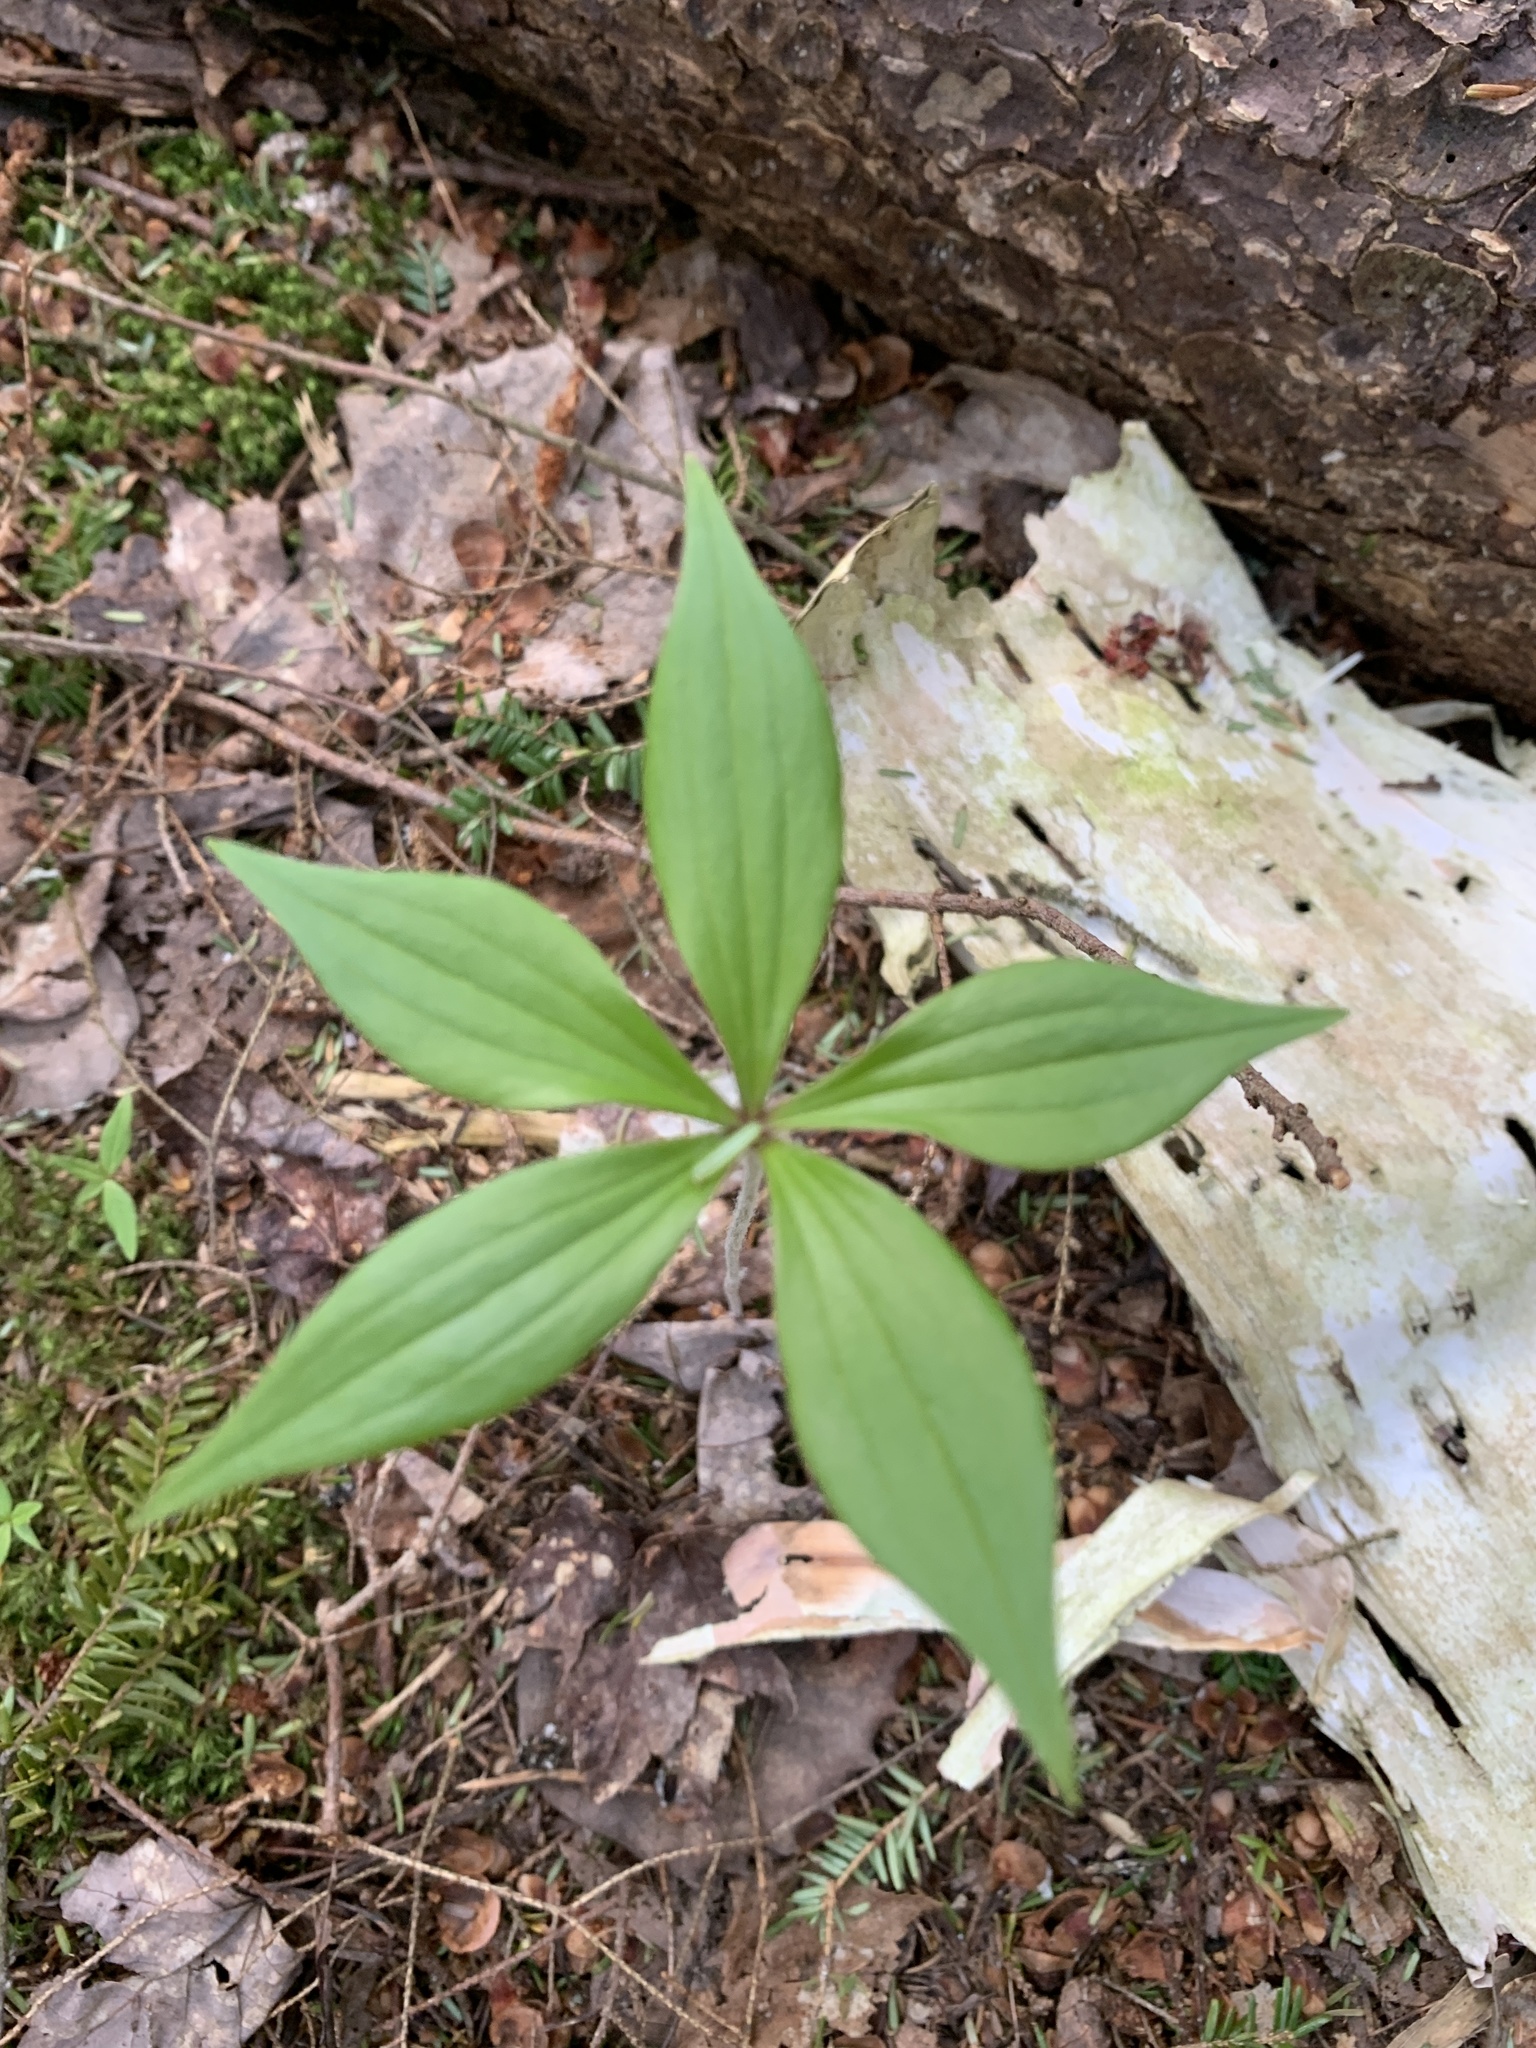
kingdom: Plantae
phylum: Tracheophyta
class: Liliopsida
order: Liliales
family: Liliaceae
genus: Medeola
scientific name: Medeola virginiana
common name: Indian cucumber-root
